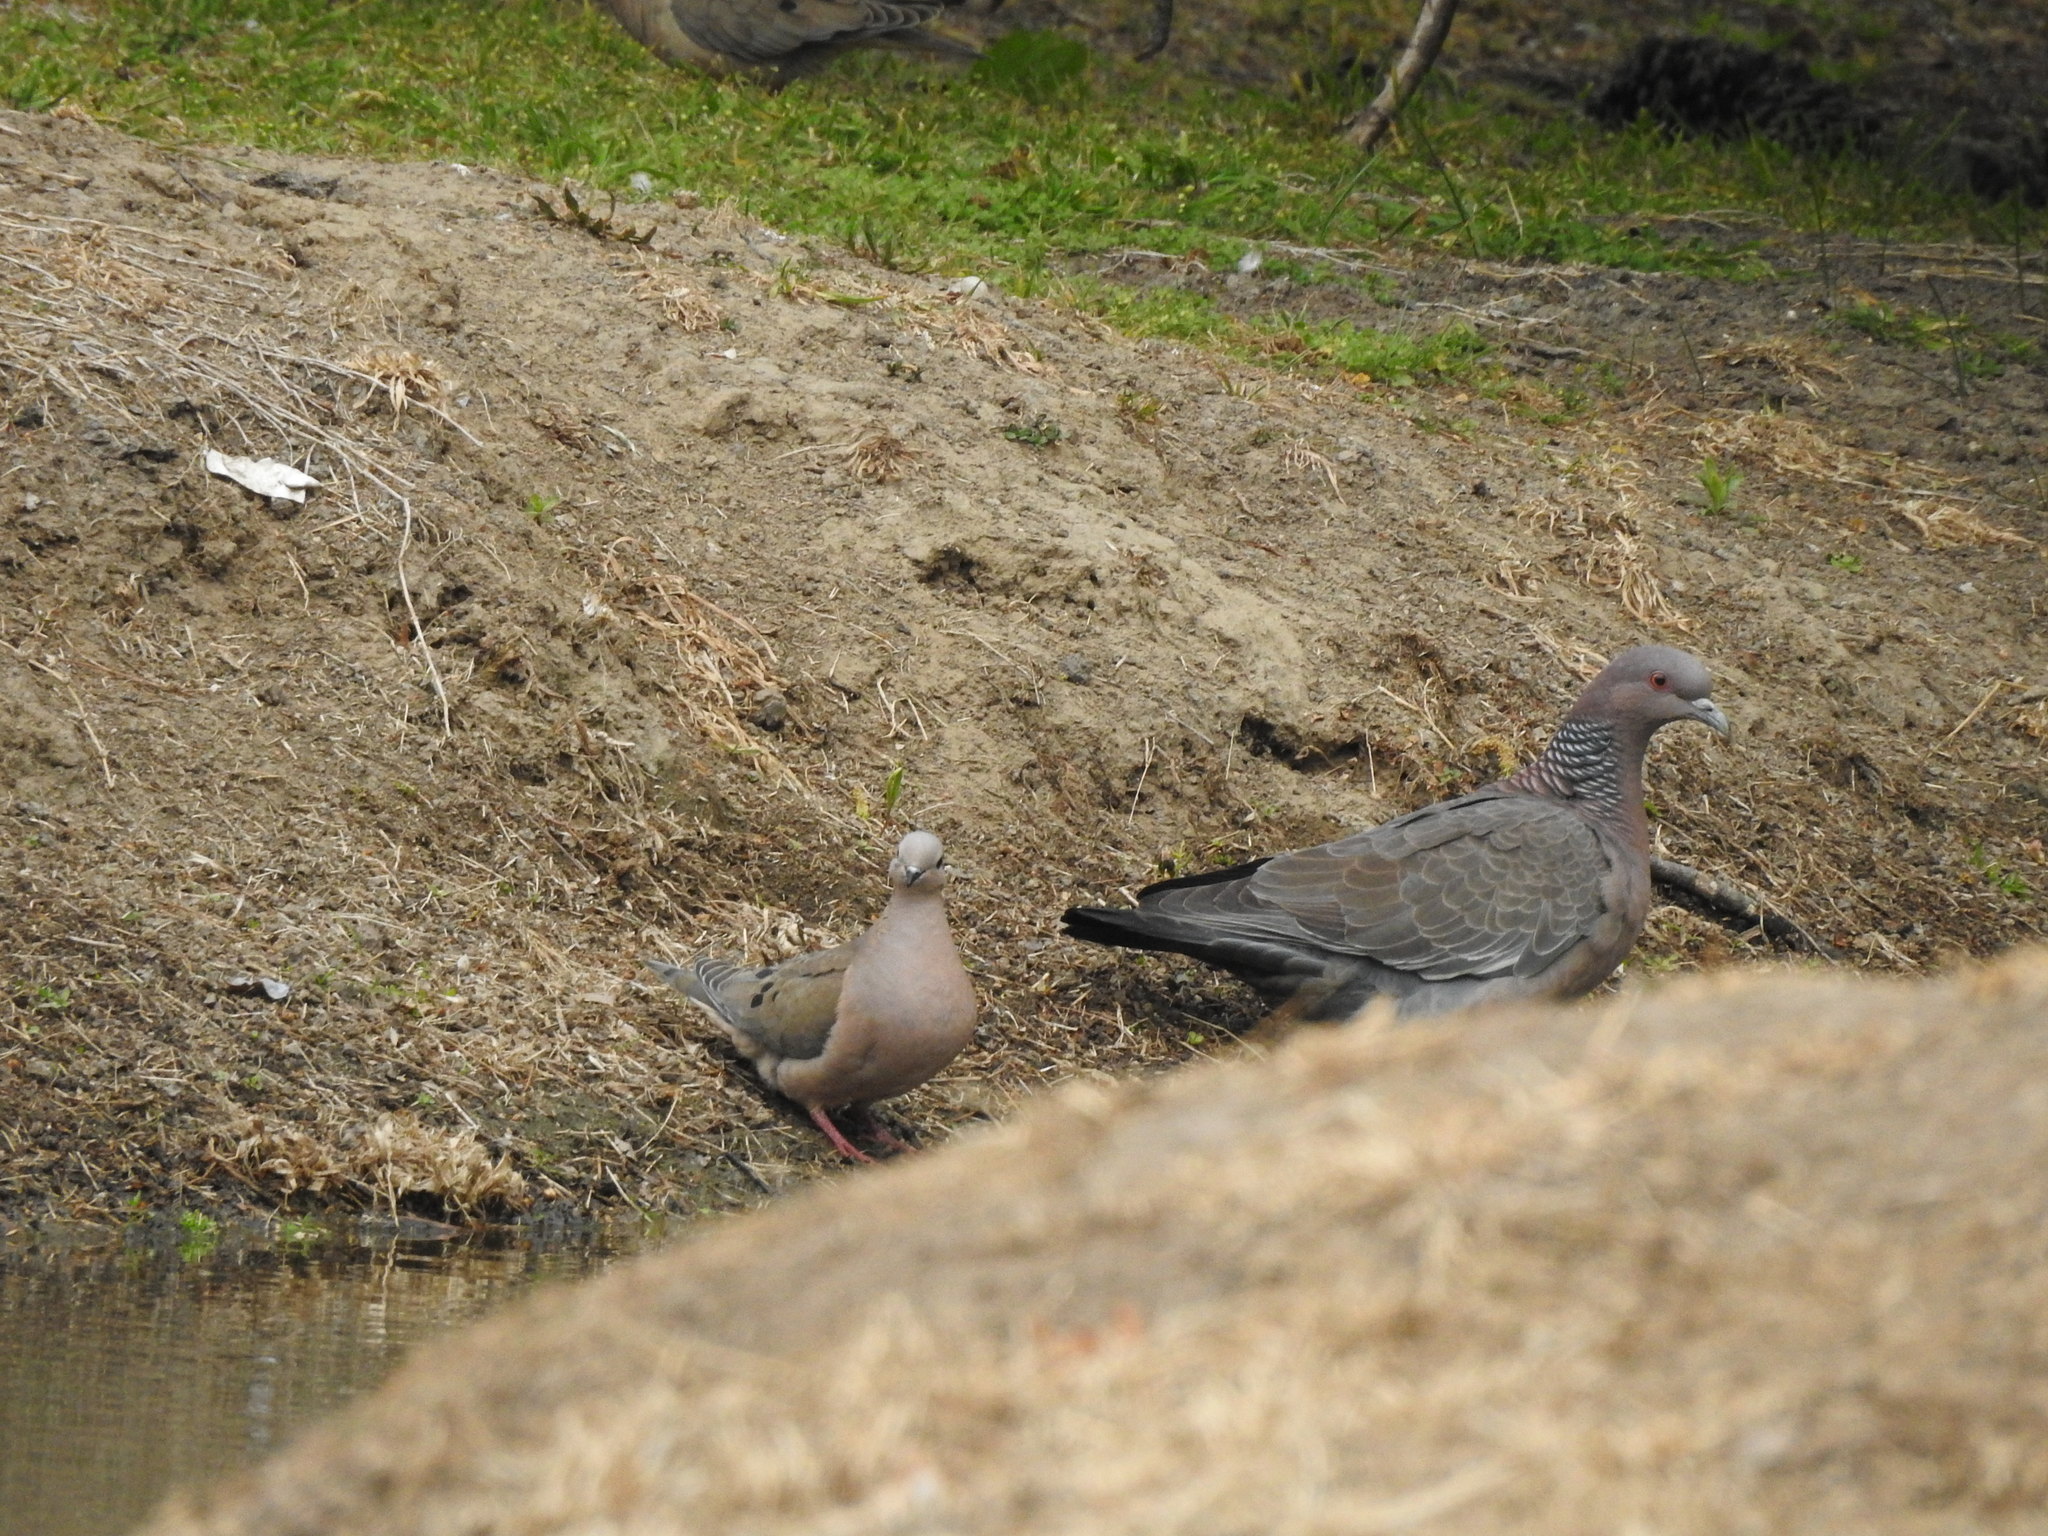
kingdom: Animalia
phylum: Chordata
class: Aves
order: Columbiformes
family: Columbidae
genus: Zenaida
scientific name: Zenaida auriculata
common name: Eared dove
